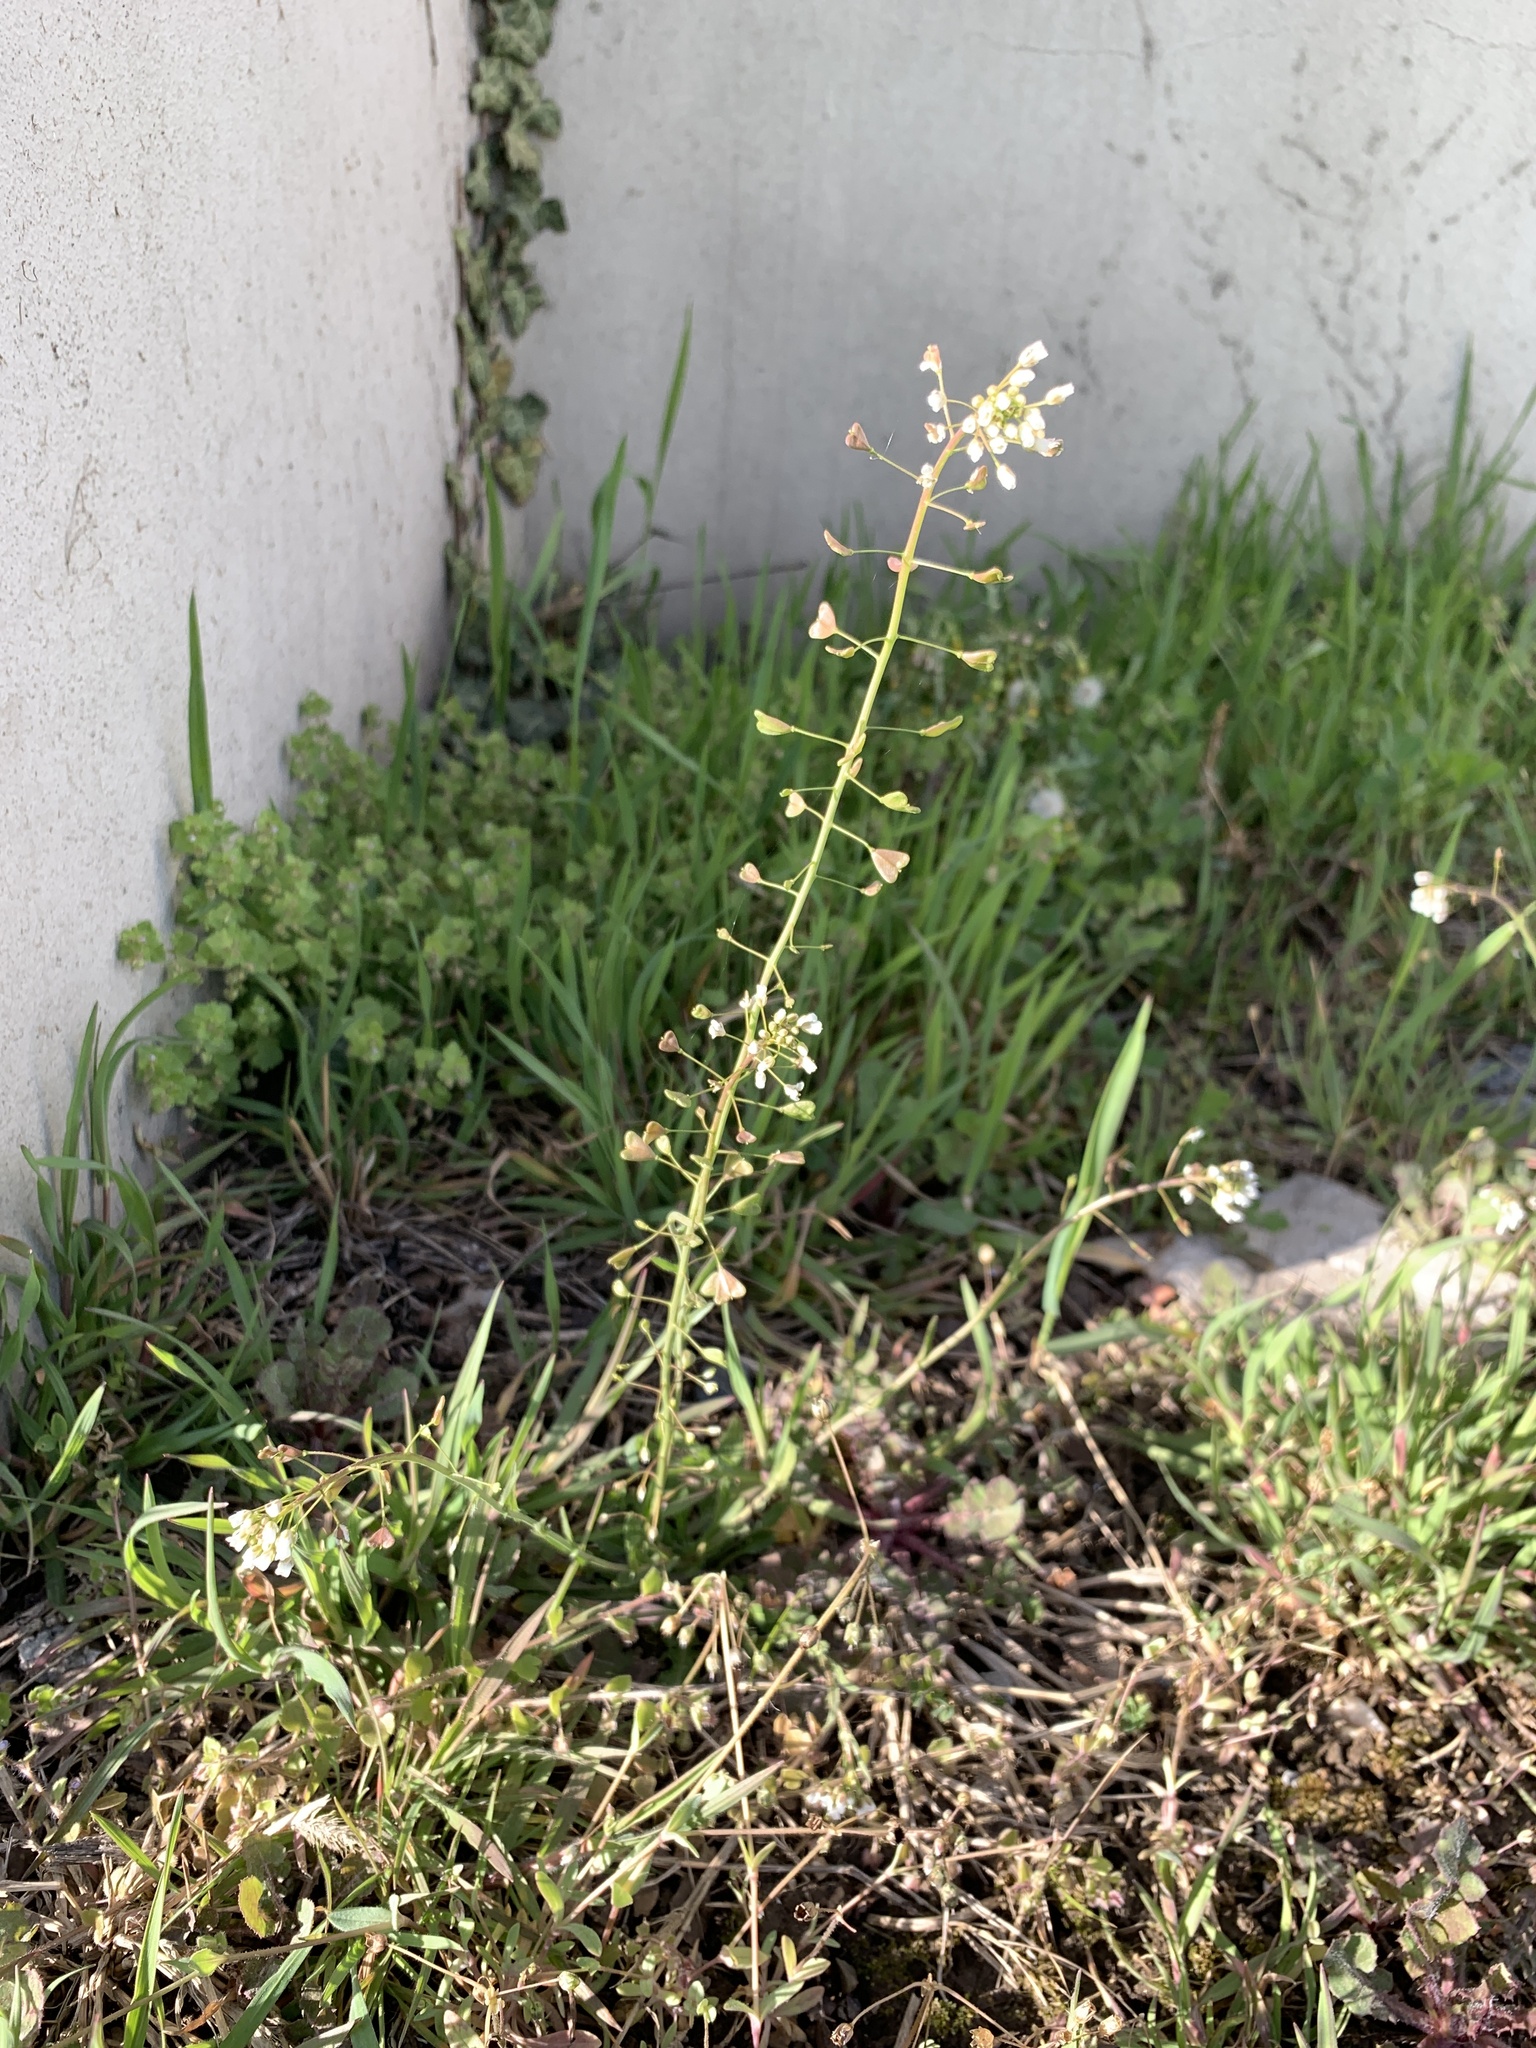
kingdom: Plantae
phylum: Tracheophyta
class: Magnoliopsida
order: Brassicales
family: Brassicaceae
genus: Capsella
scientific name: Capsella bursa-pastoris
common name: Shepherd's purse
